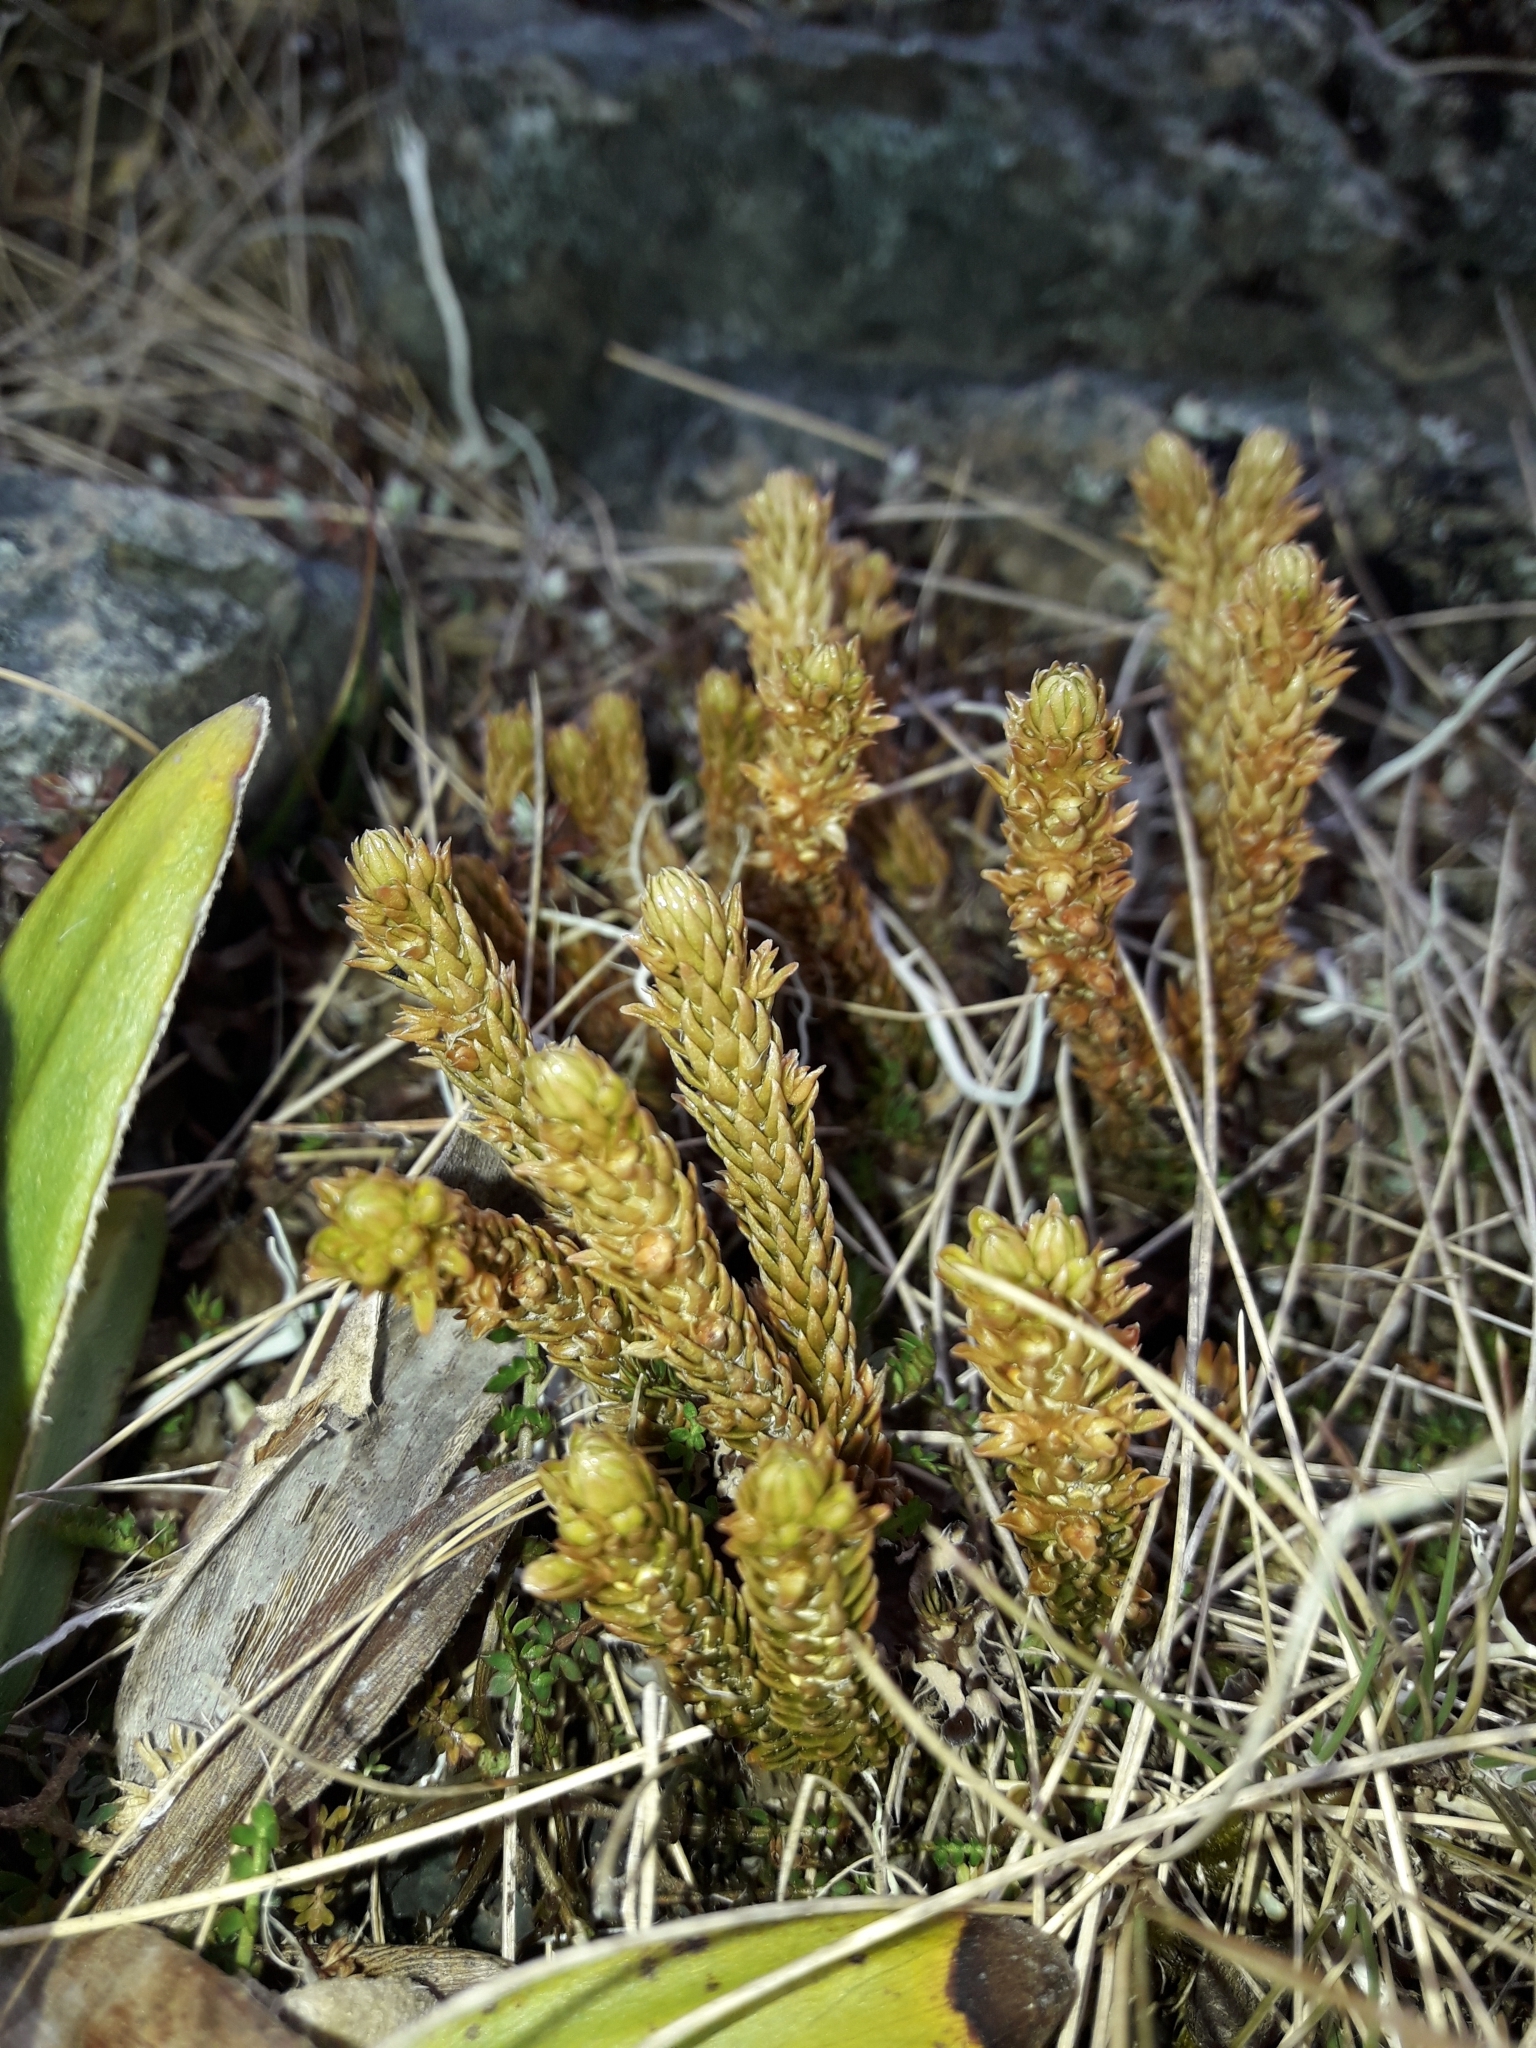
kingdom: Plantae
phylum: Tracheophyta
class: Lycopodiopsida
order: Lycopodiales
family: Lycopodiaceae
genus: Huperzia
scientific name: Huperzia australiana
